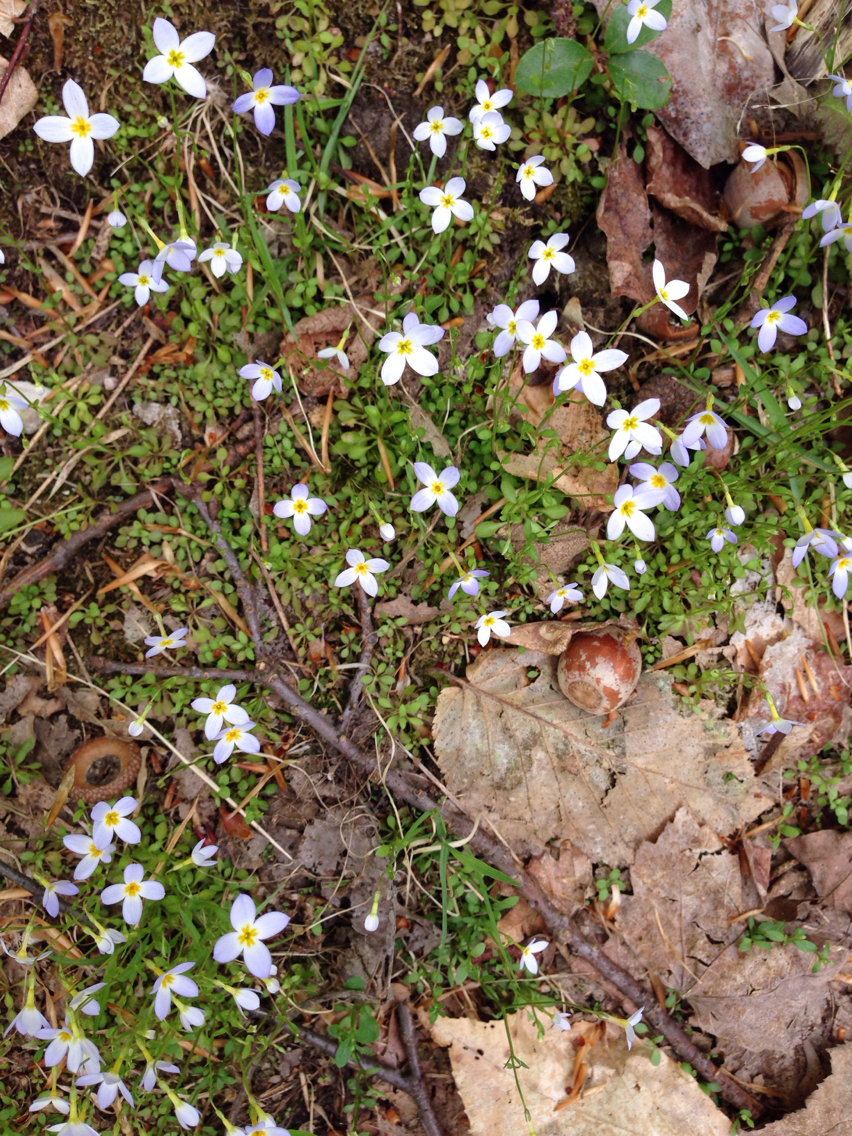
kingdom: Plantae
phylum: Tracheophyta
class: Magnoliopsida
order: Gentianales
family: Rubiaceae
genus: Houstonia
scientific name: Houstonia caerulea
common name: Bluets
